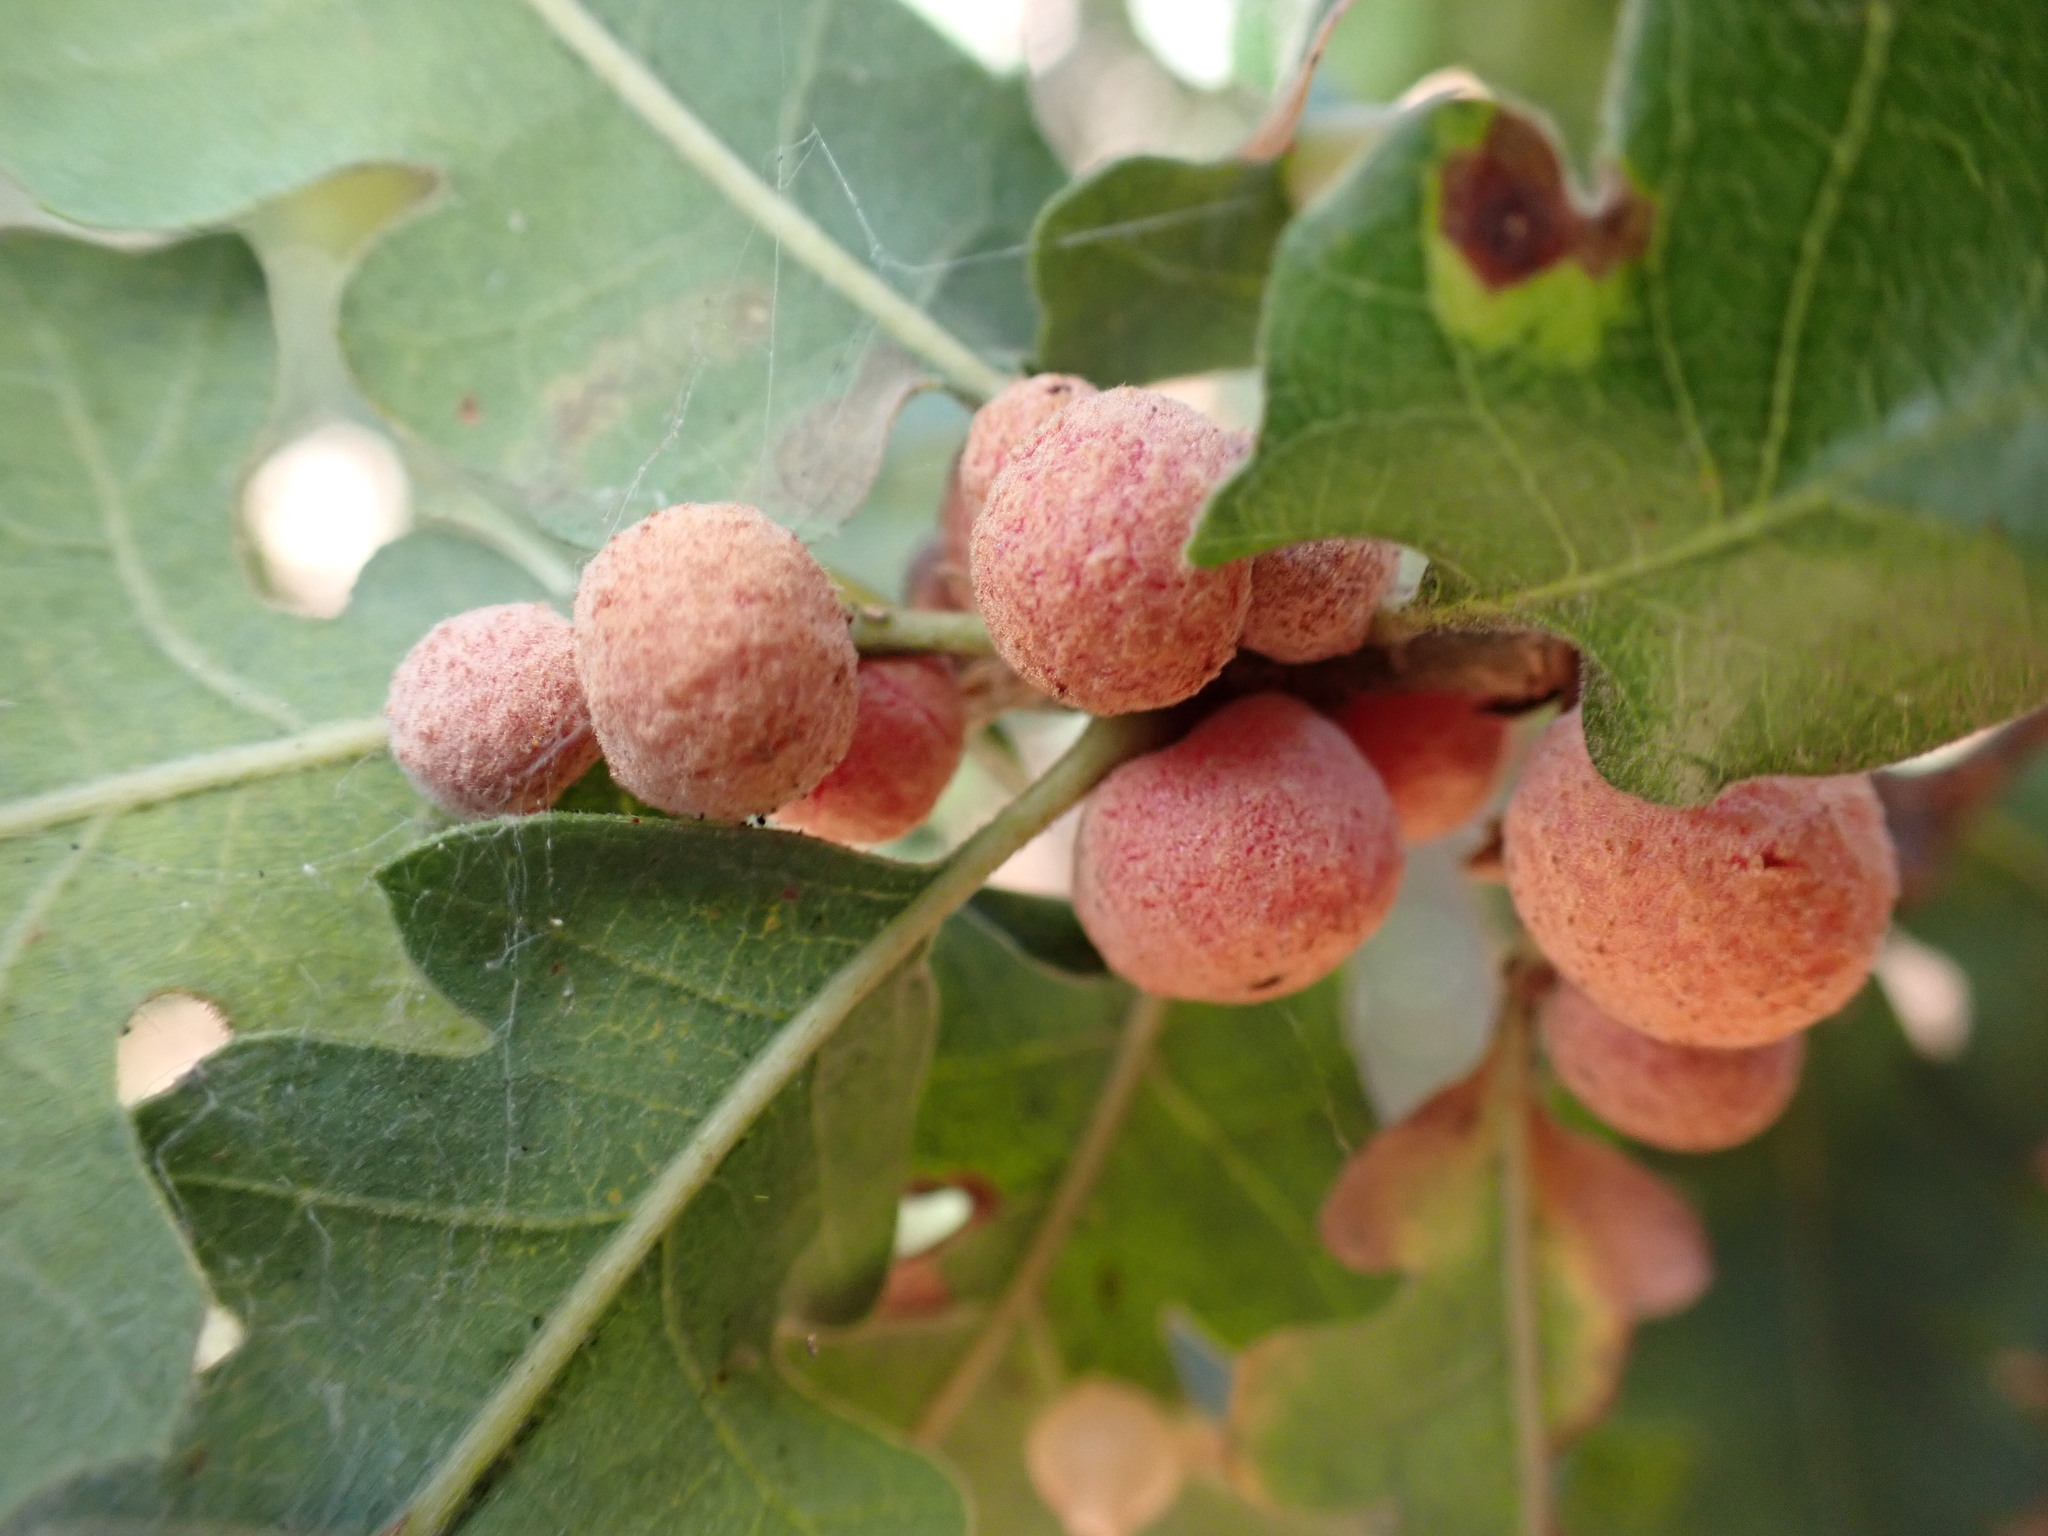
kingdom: Animalia
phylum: Arthropoda
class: Insecta
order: Hymenoptera
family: Cynipidae
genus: Cynips
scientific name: Cynips conspicua
